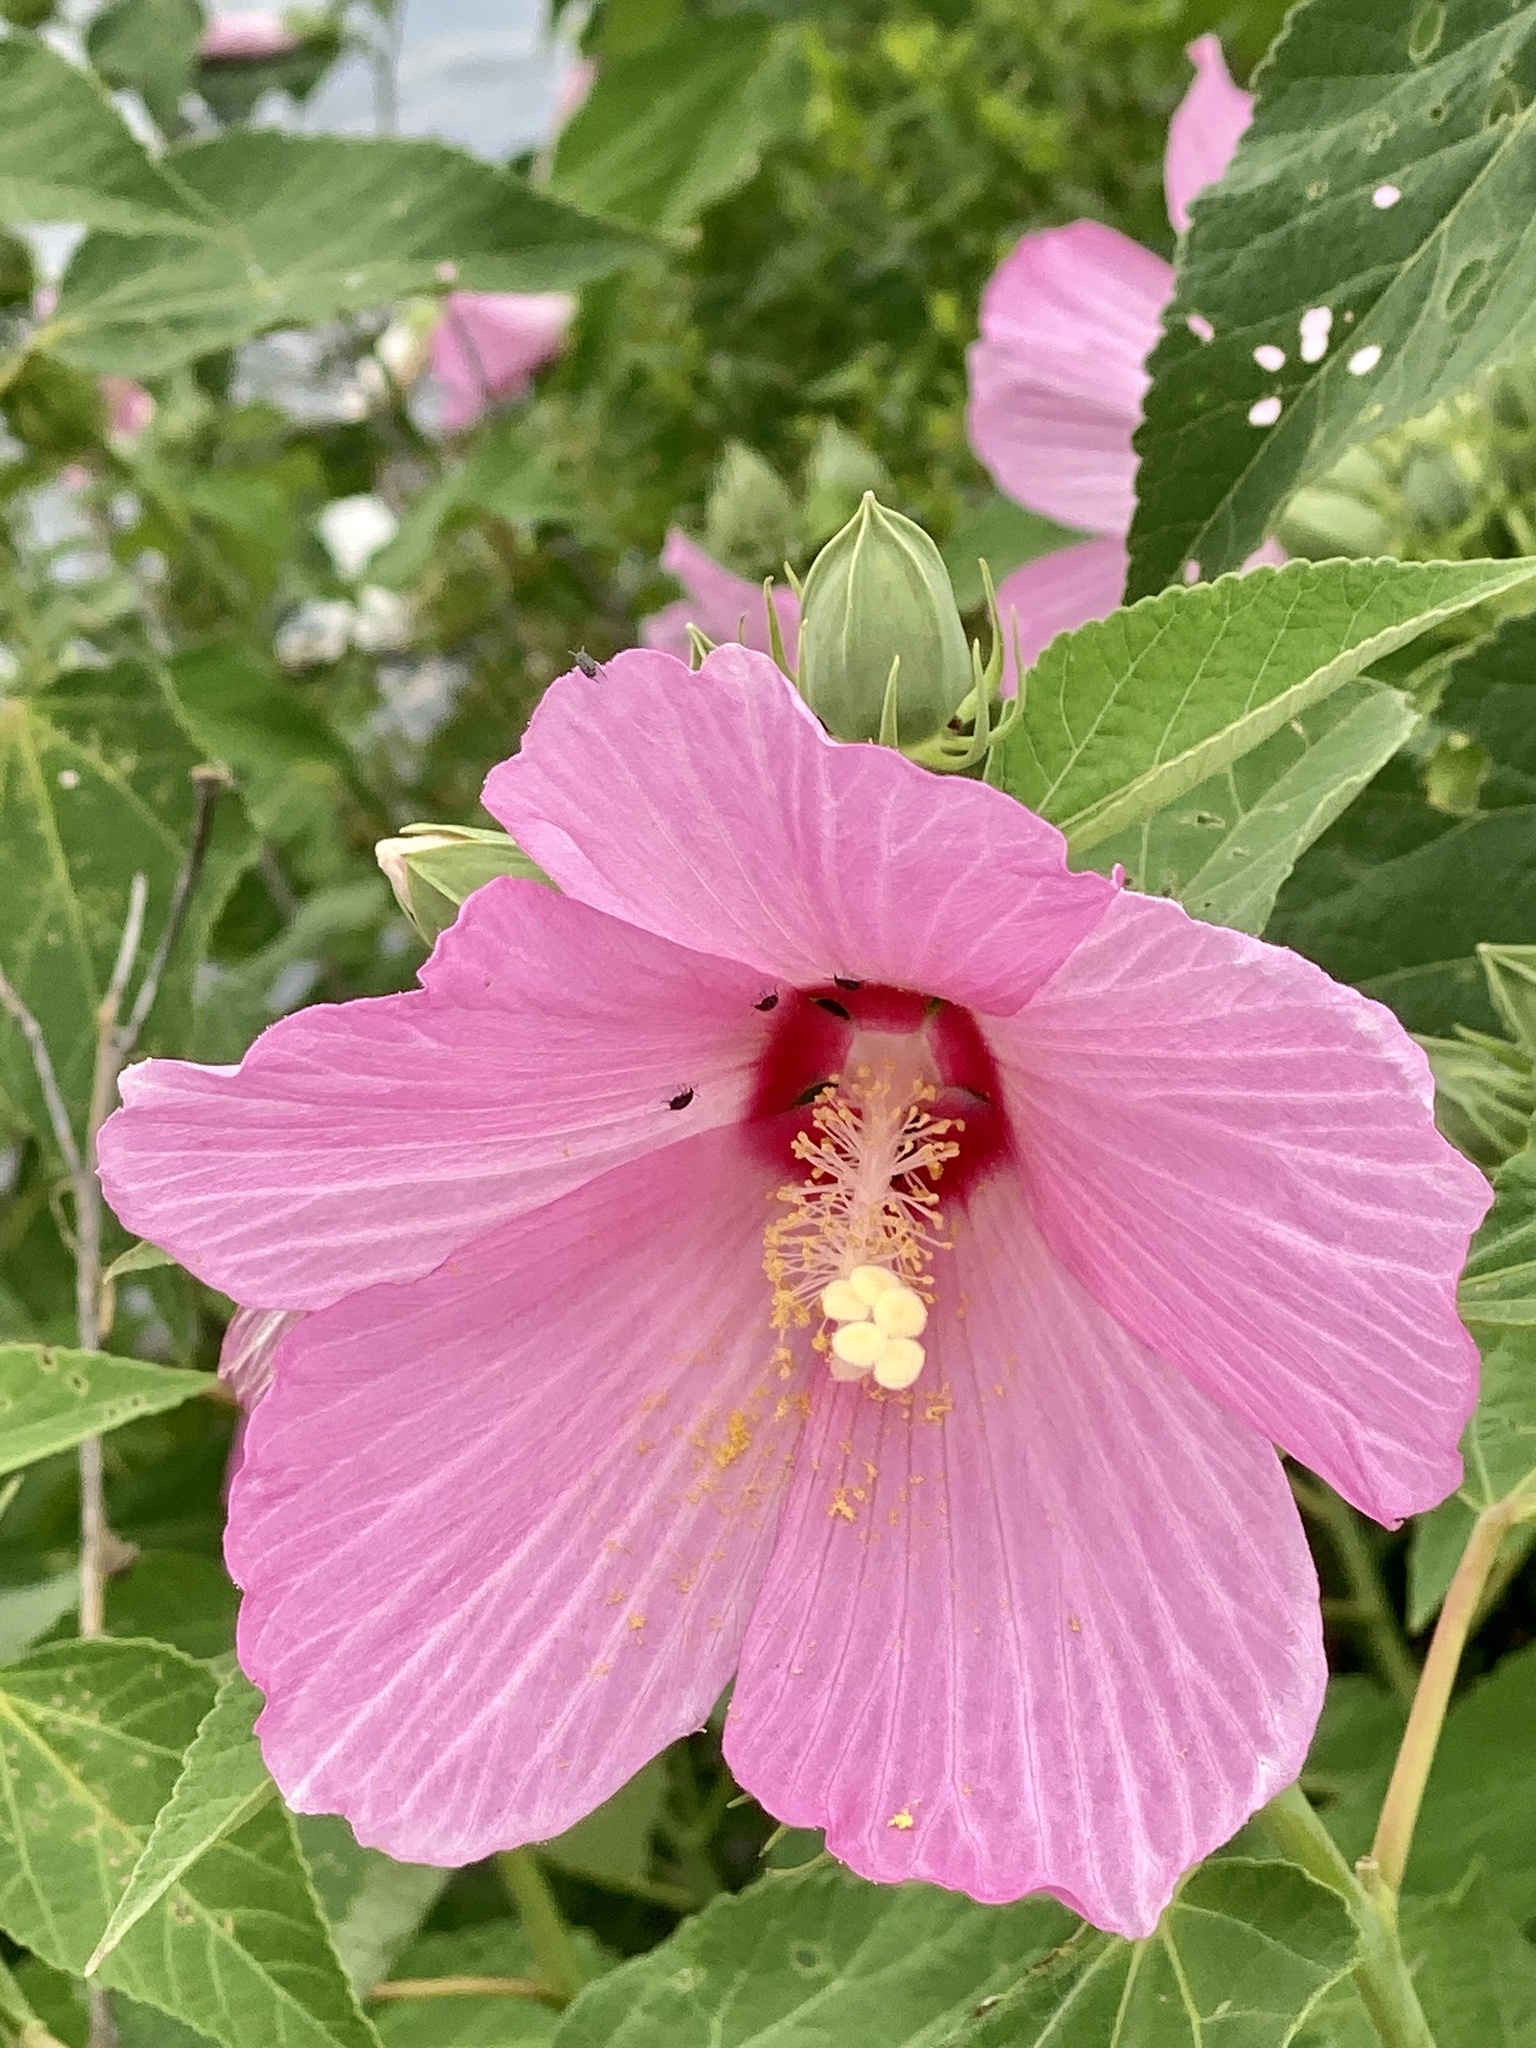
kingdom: Plantae
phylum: Tracheophyta
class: Magnoliopsida
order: Malvales
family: Malvaceae
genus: Hibiscus
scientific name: Hibiscus moscheutos
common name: Common rose-mallow
